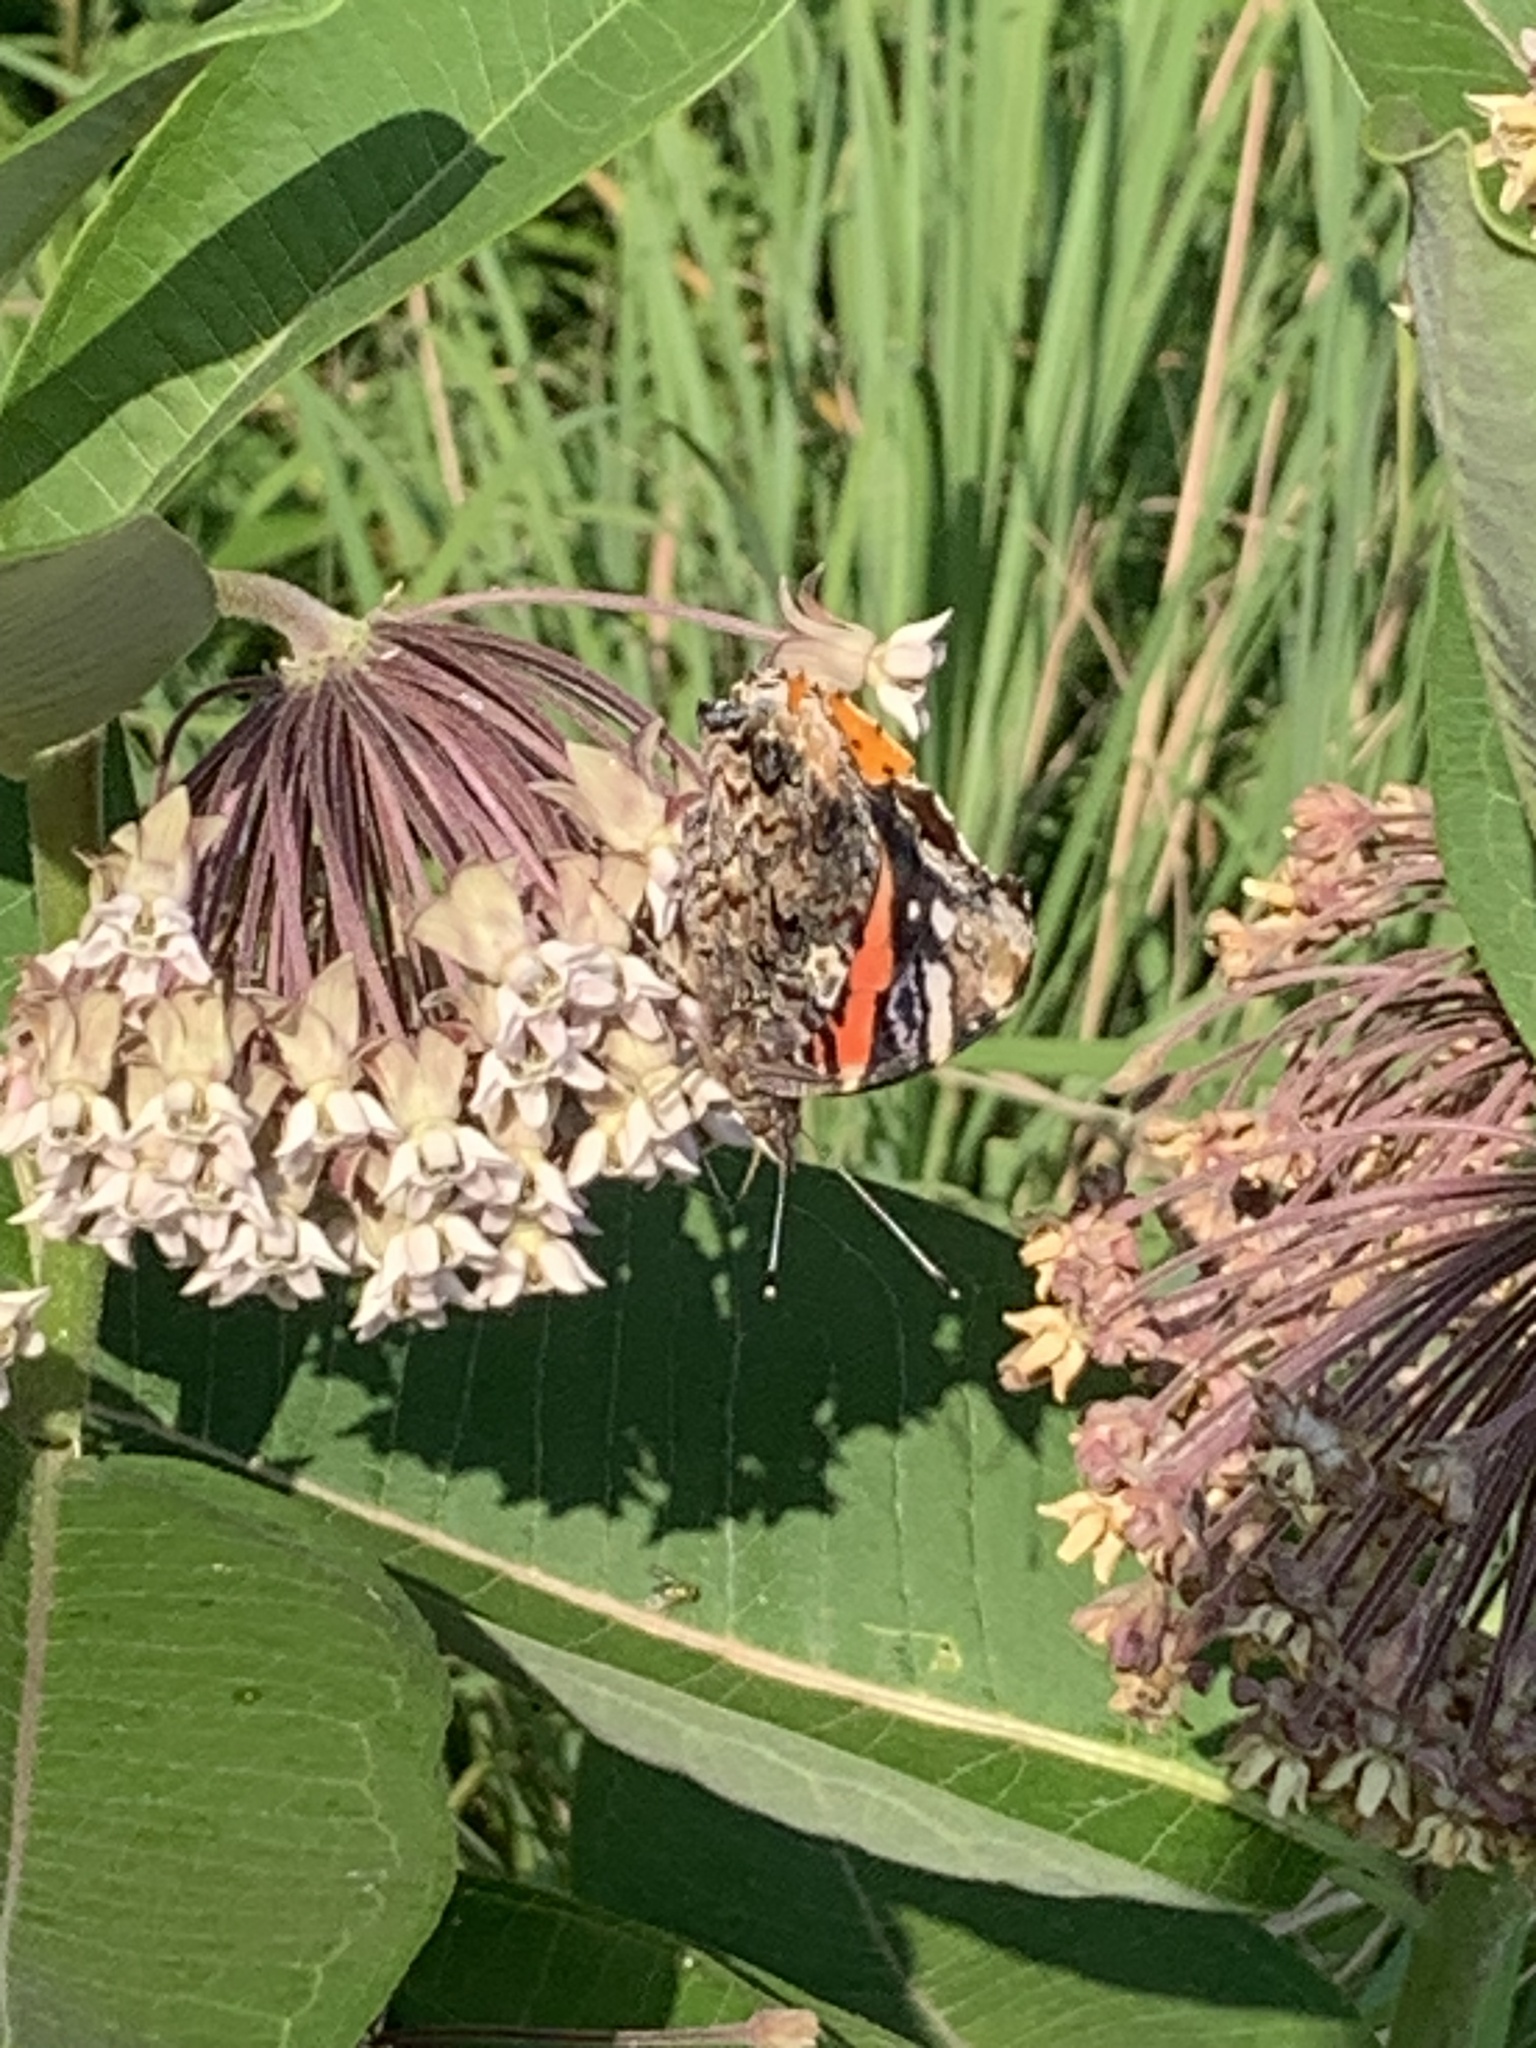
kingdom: Animalia
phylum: Arthropoda
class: Insecta
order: Lepidoptera
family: Nymphalidae
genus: Vanessa
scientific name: Vanessa atalanta
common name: Red admiral
